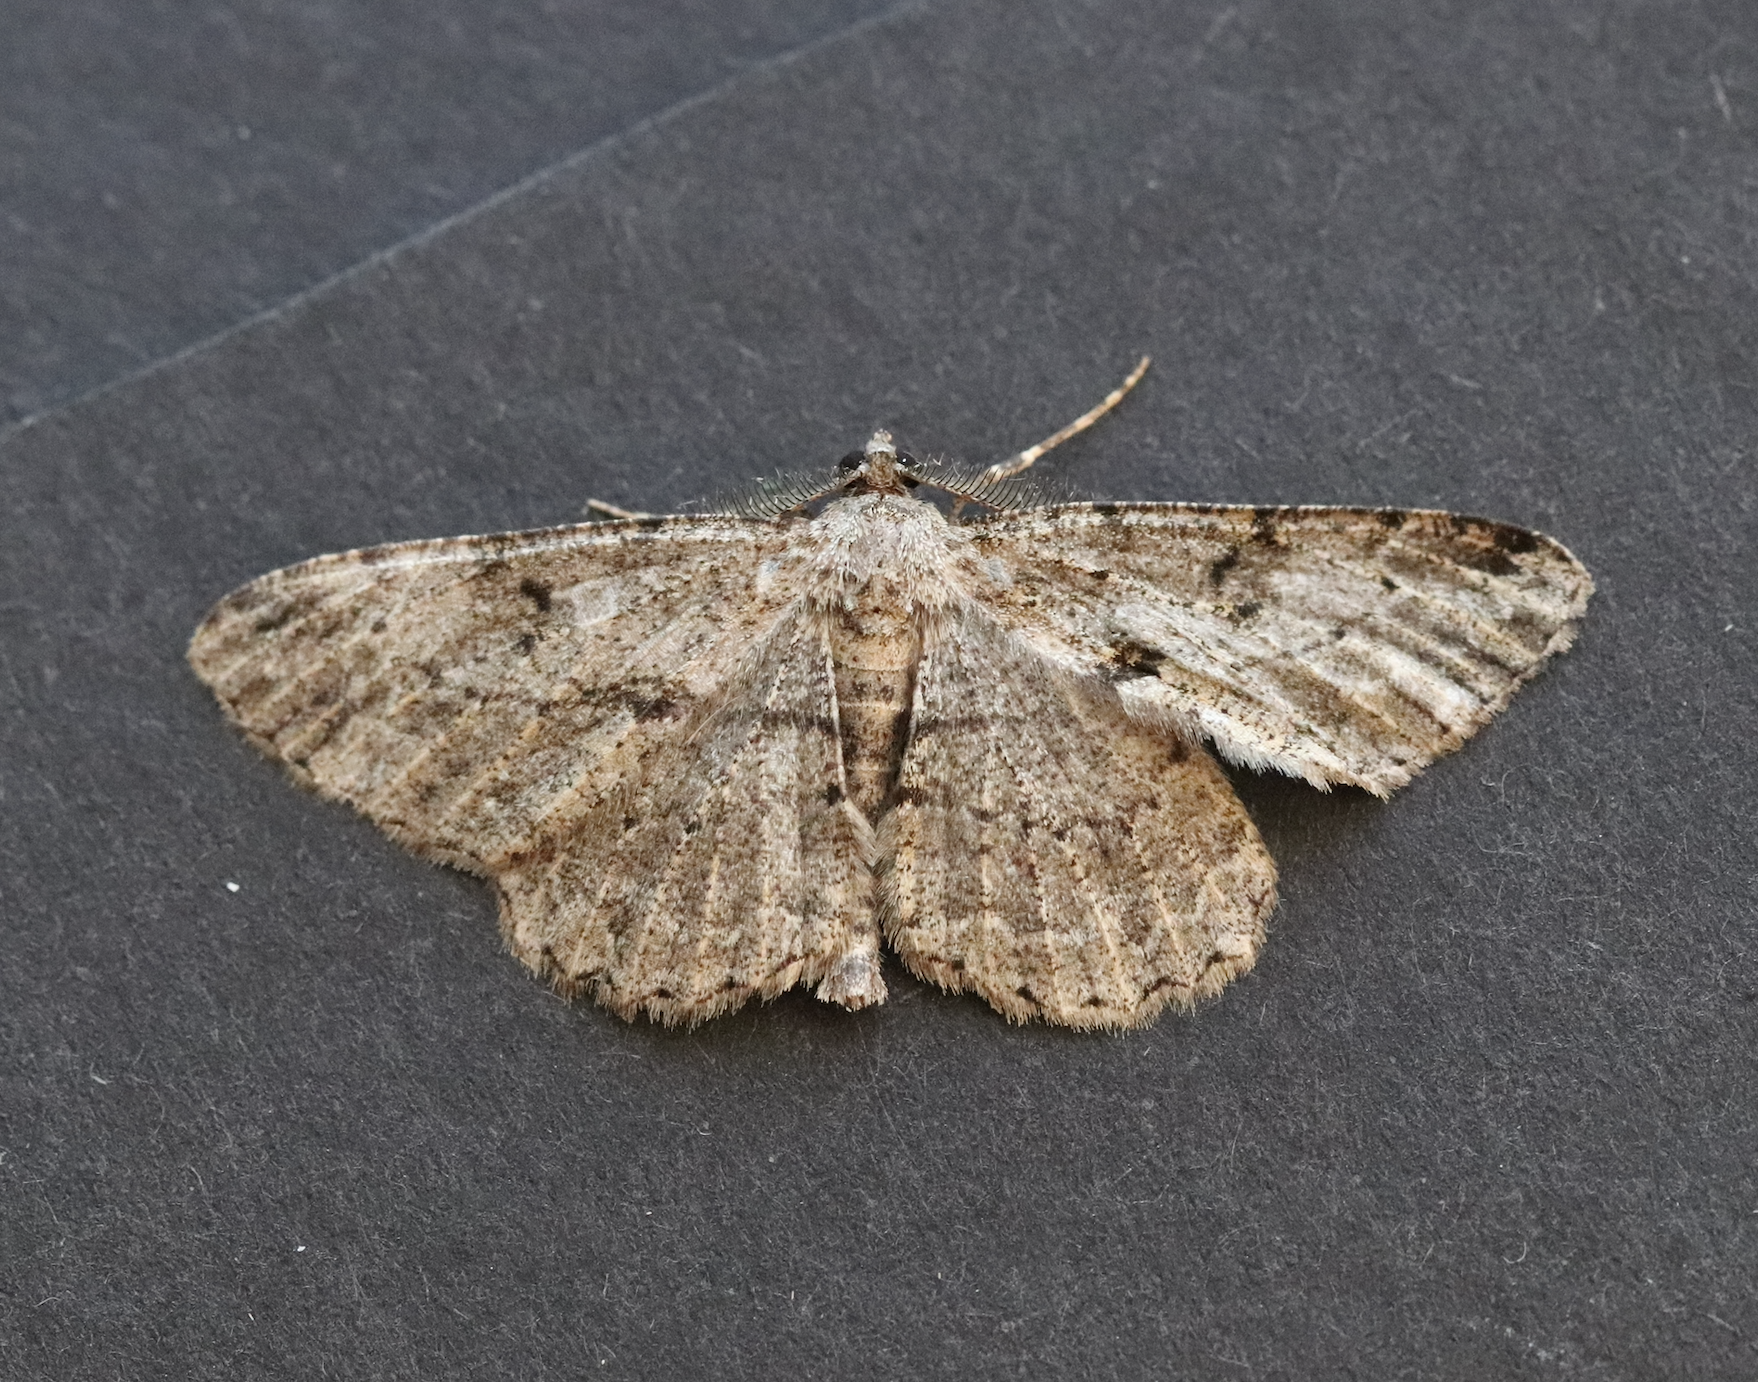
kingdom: Animalia
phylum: Arthropoda
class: Insecta
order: Lepidoptera
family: Geometridae
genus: Peribatodes
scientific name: Peribatodes rhomboidaria
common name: Willow beauty
